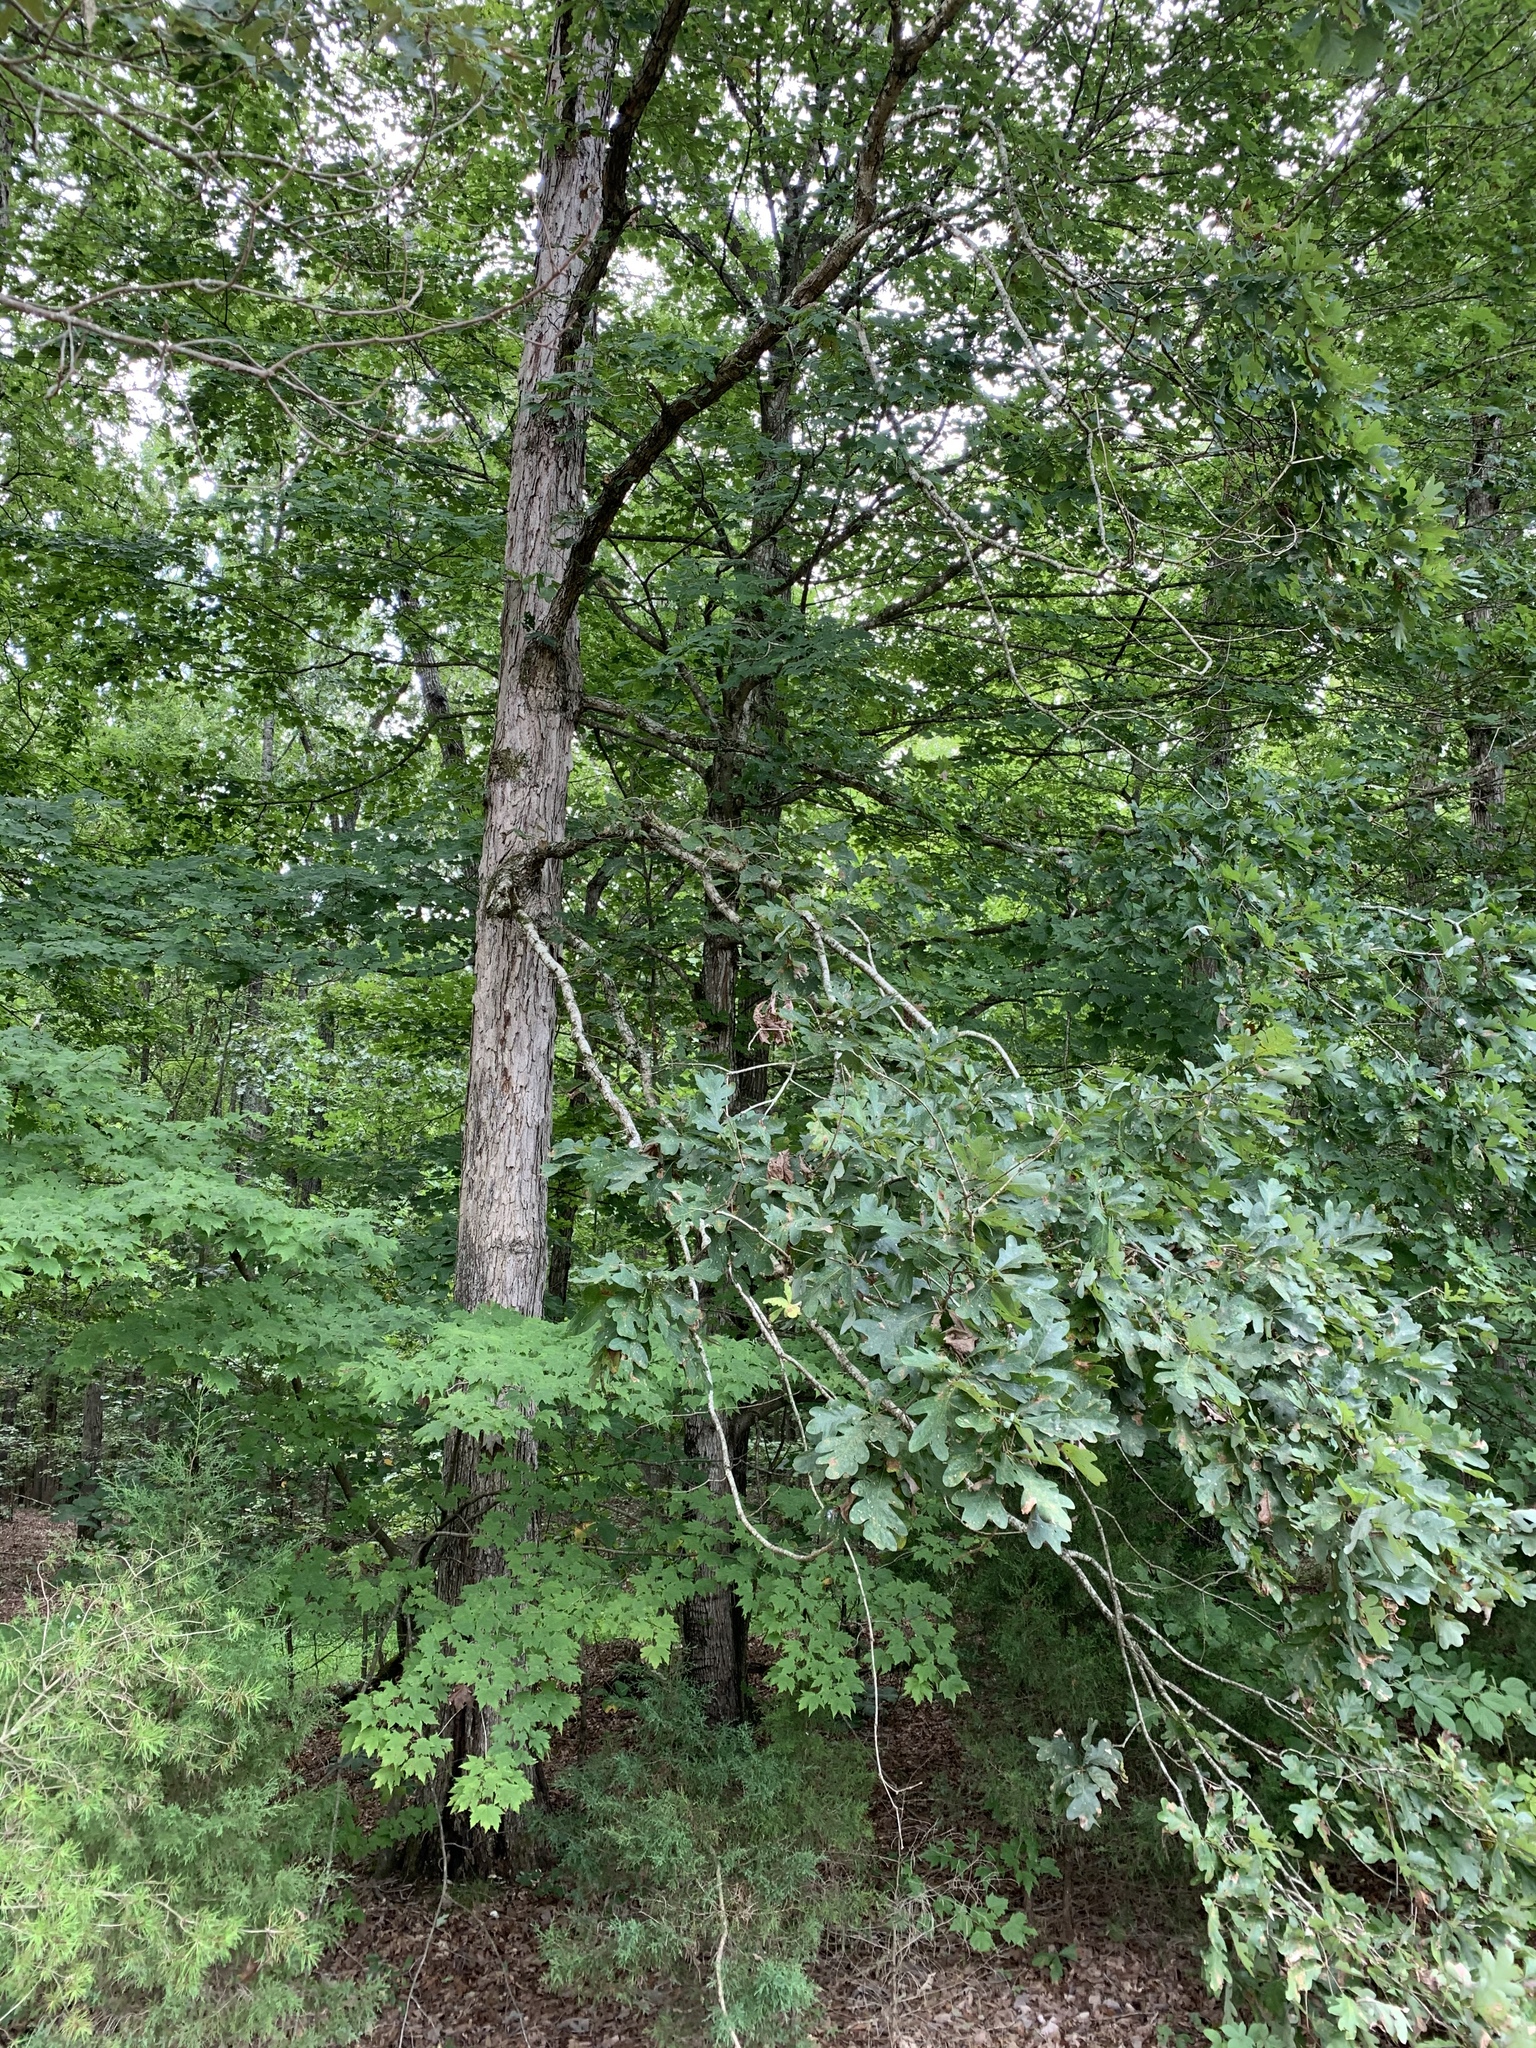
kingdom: Plantae
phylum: Tracheophyta
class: Magnoliopsida
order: Fagales
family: Fagaceae
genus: Quercus
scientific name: Quercus alba
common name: White oak
